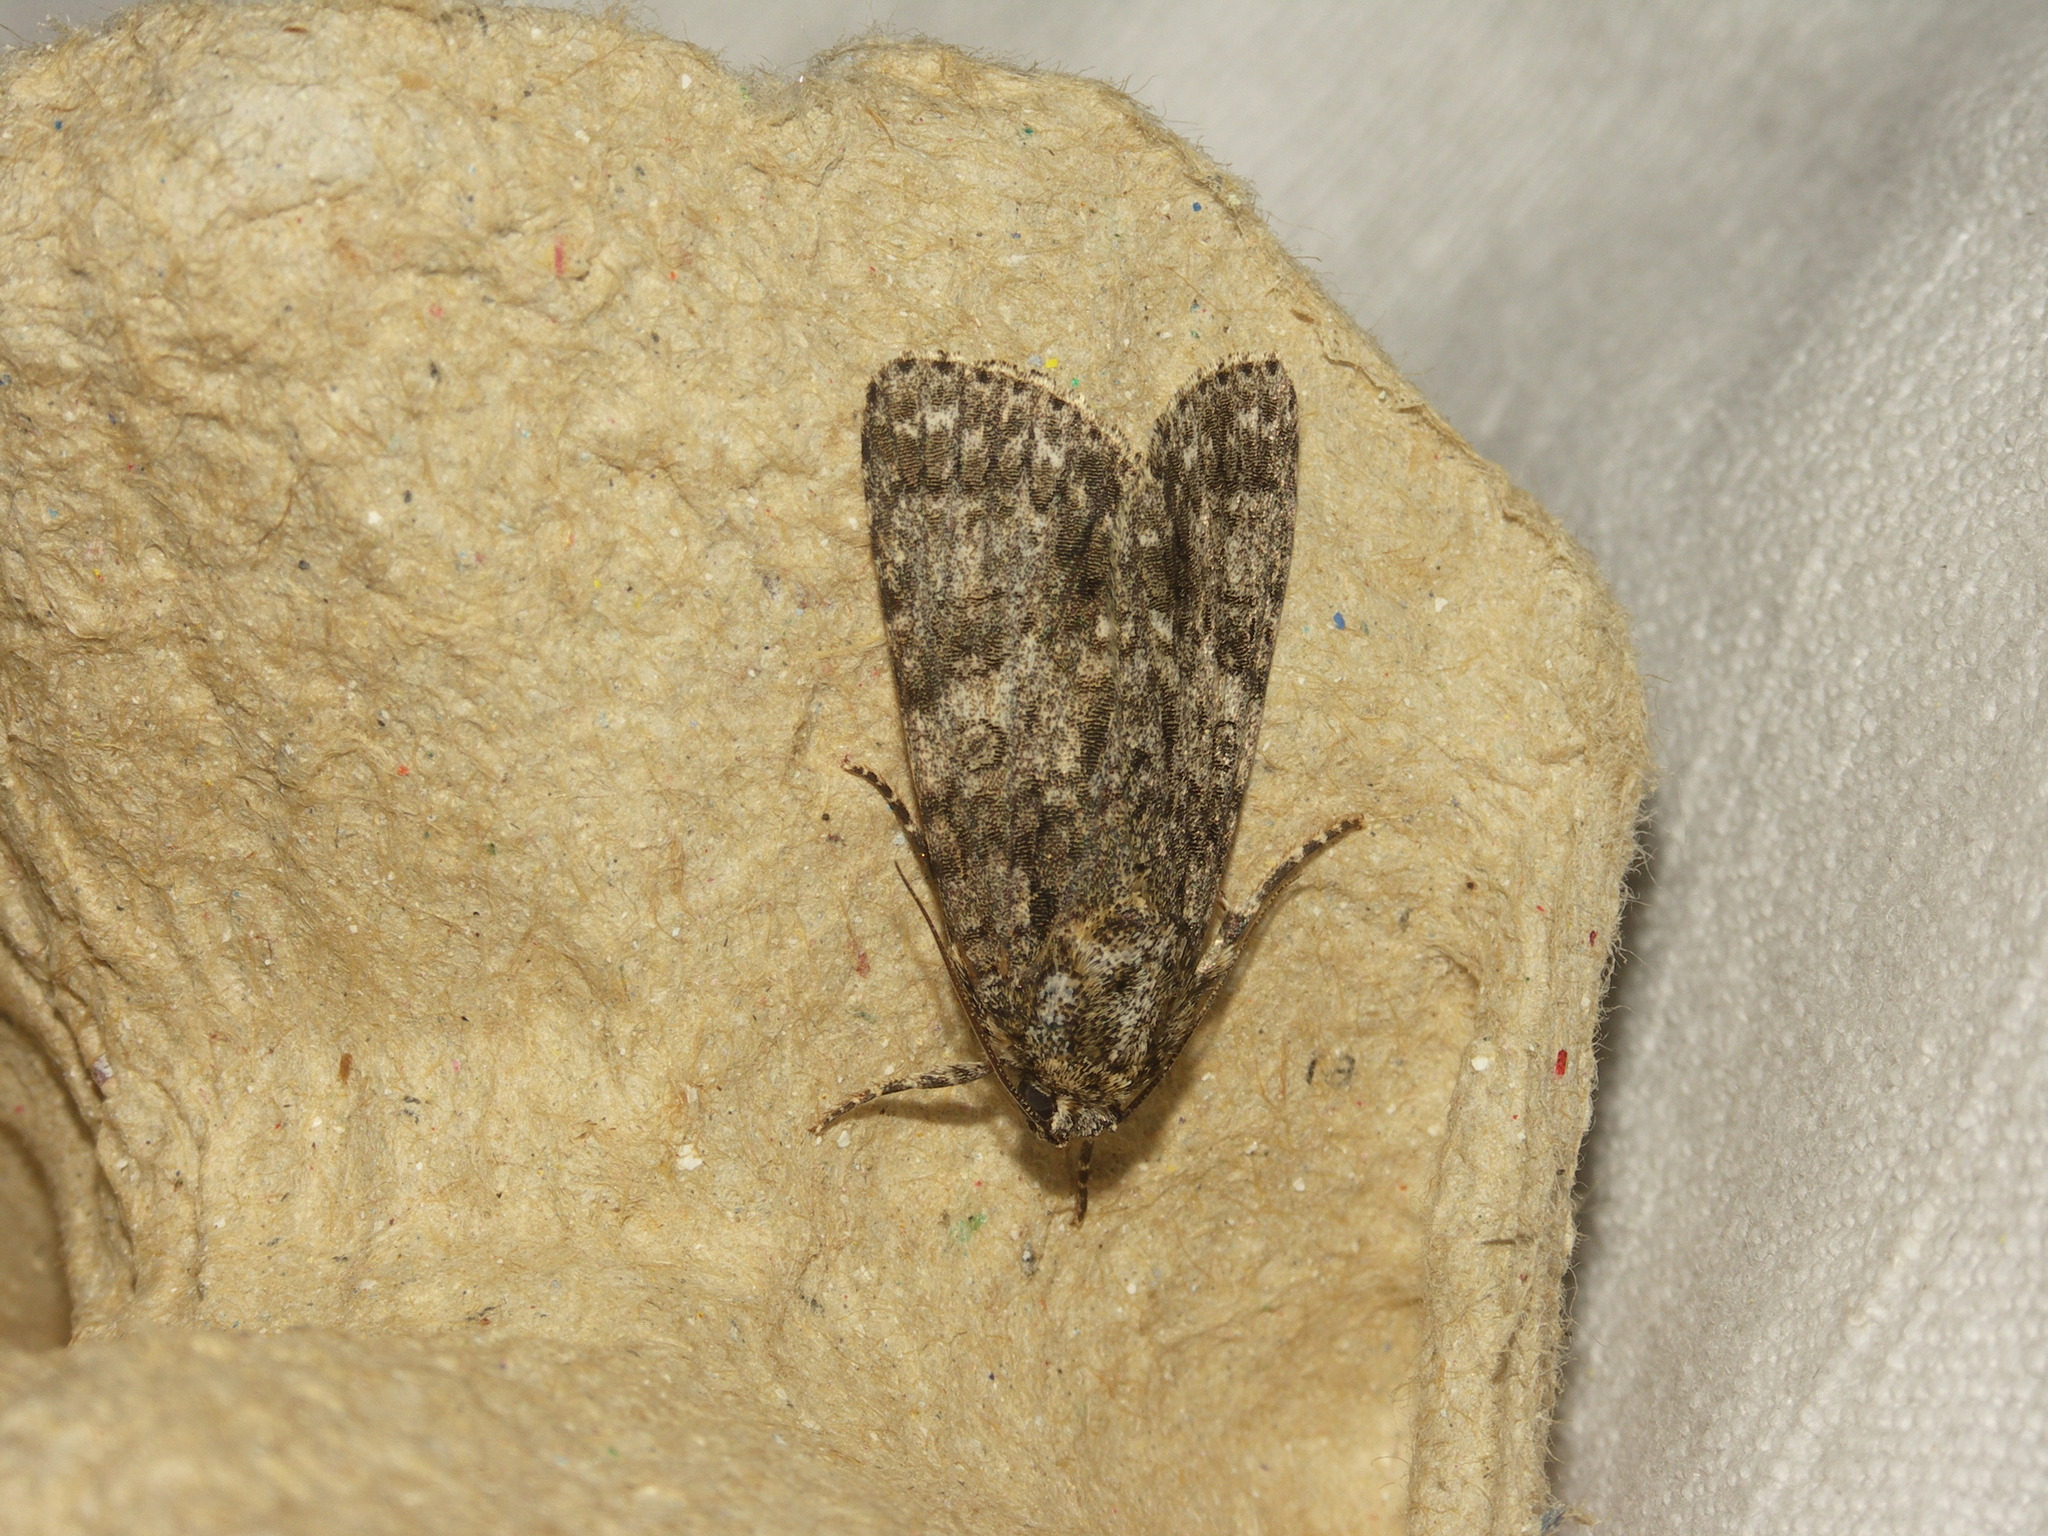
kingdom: Animalia
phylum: Arthropoda
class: Insecta
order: Lepidoptera
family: Noctuidae
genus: Acronicta
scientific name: Acronicta rumicis
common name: Knot grass
